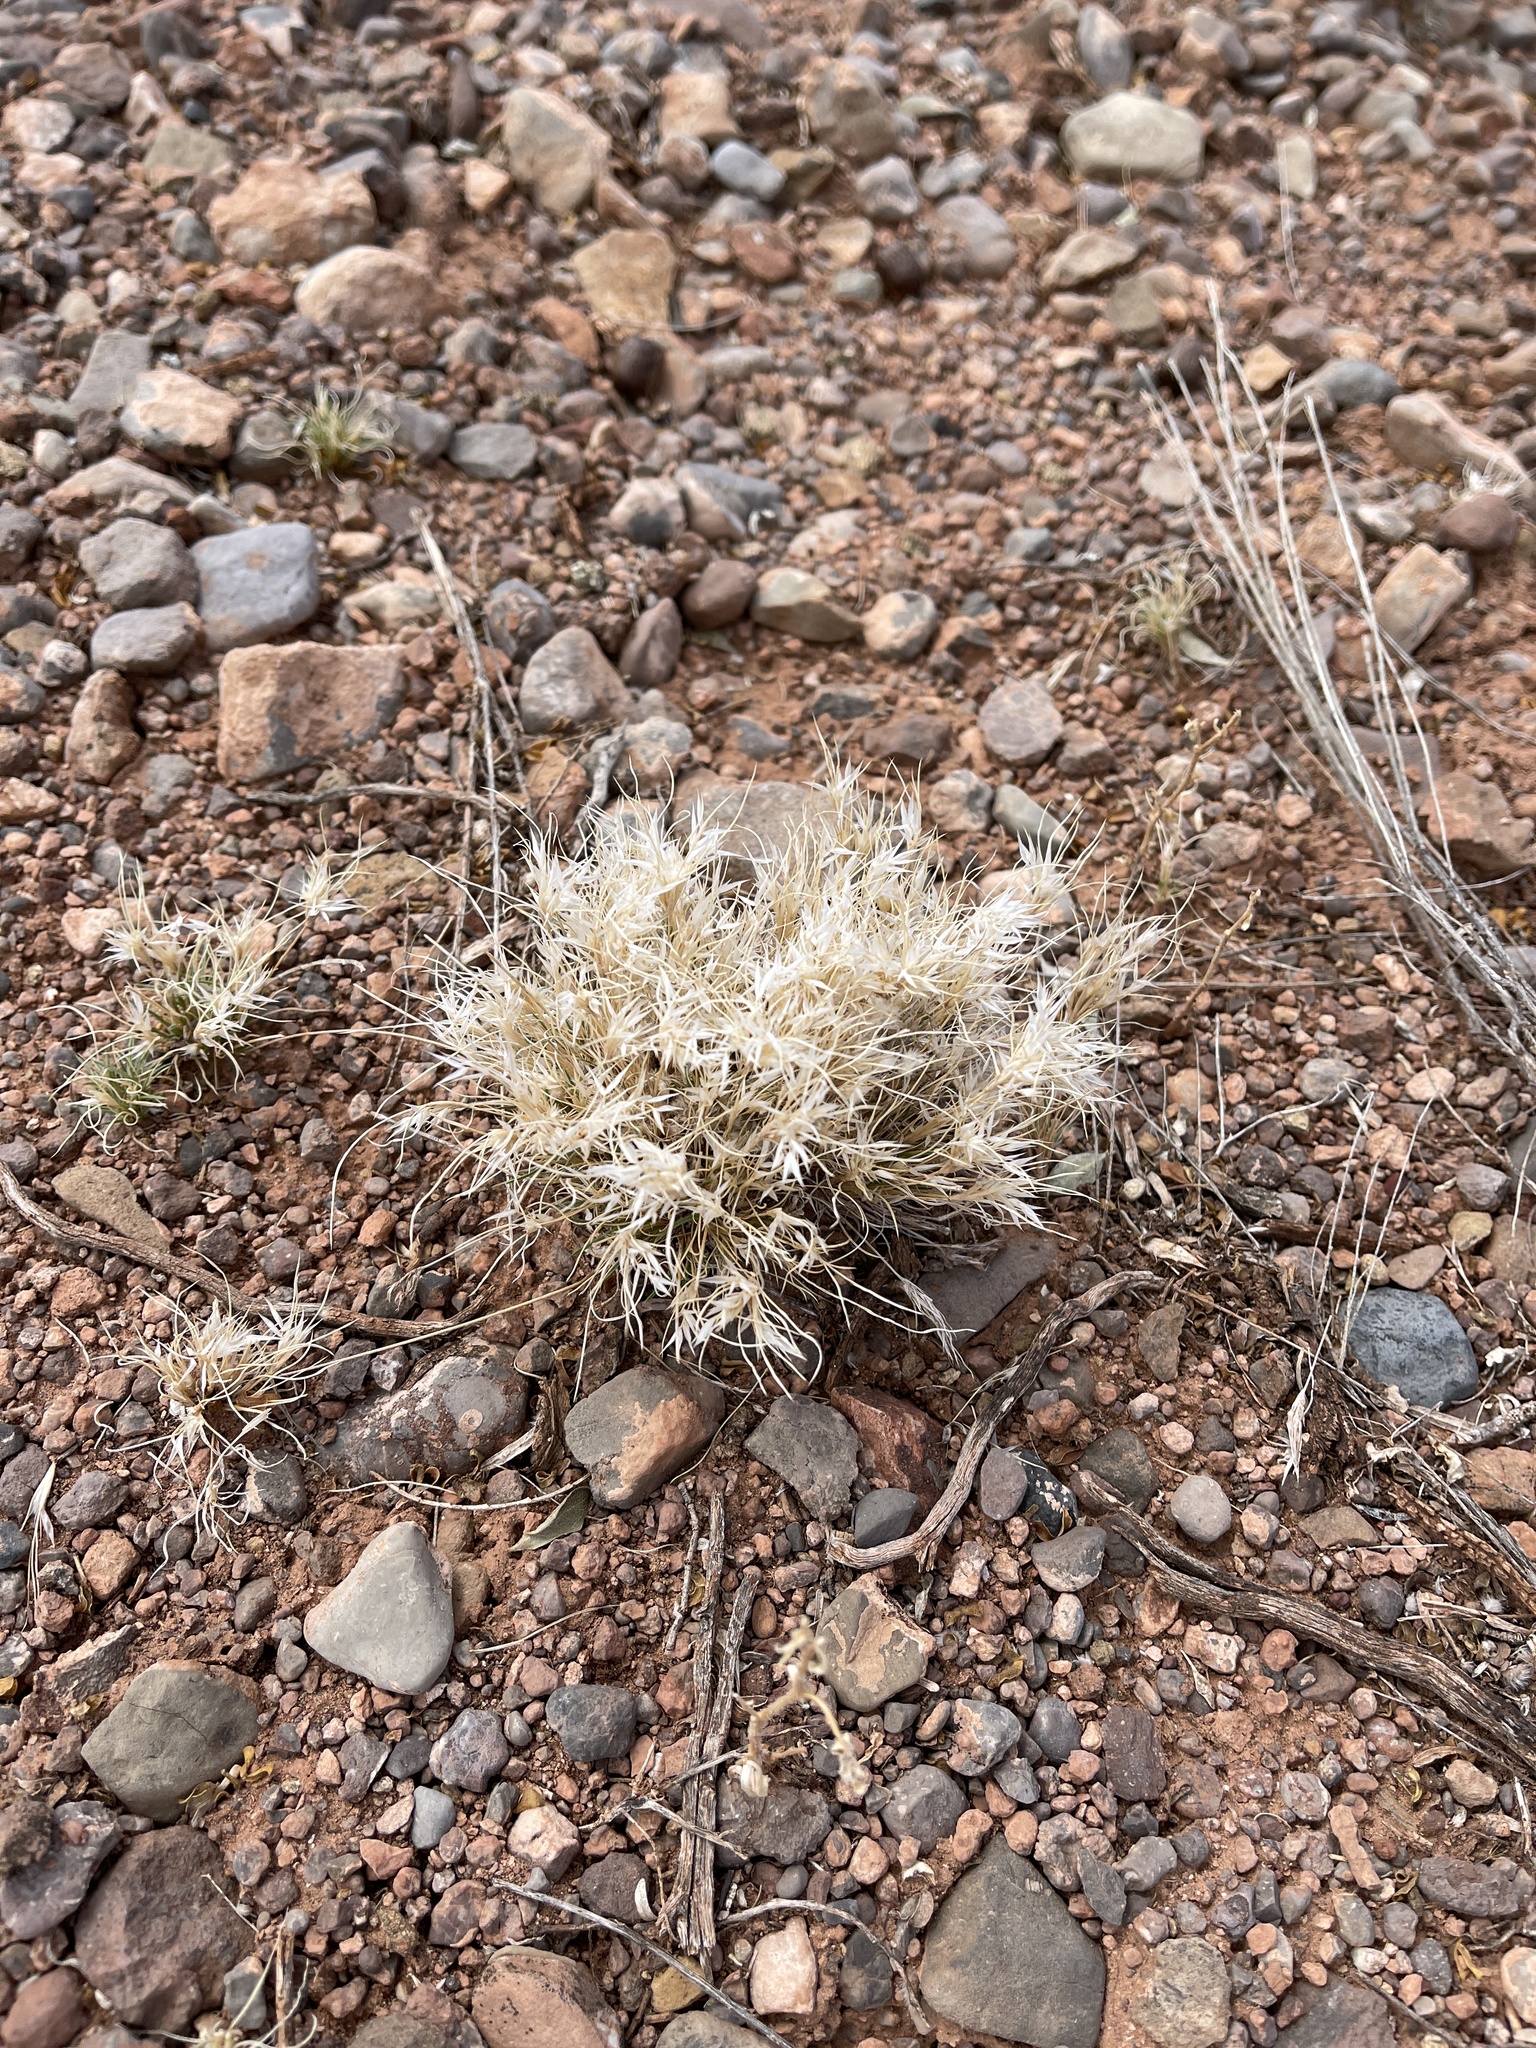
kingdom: Plantae
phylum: Tracheophyta
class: Liliopsida
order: Poales
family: Poaceae
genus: Dasyochloa
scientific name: Dasyochloa pulchella
